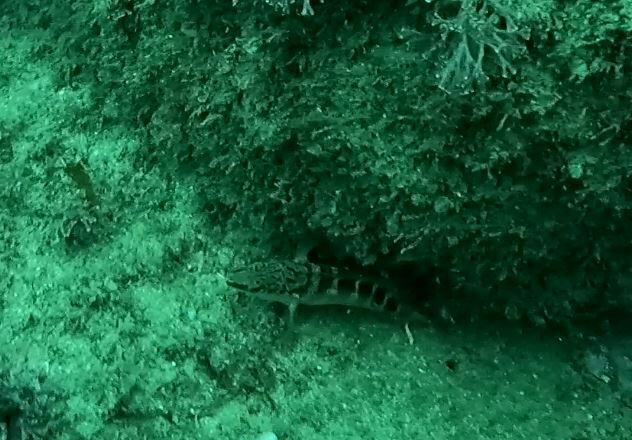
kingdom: Animalia
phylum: Chordata
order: Perciformes
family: Serranidae
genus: Hypoplectrodes
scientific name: Hypoplectrodes maccullochi
